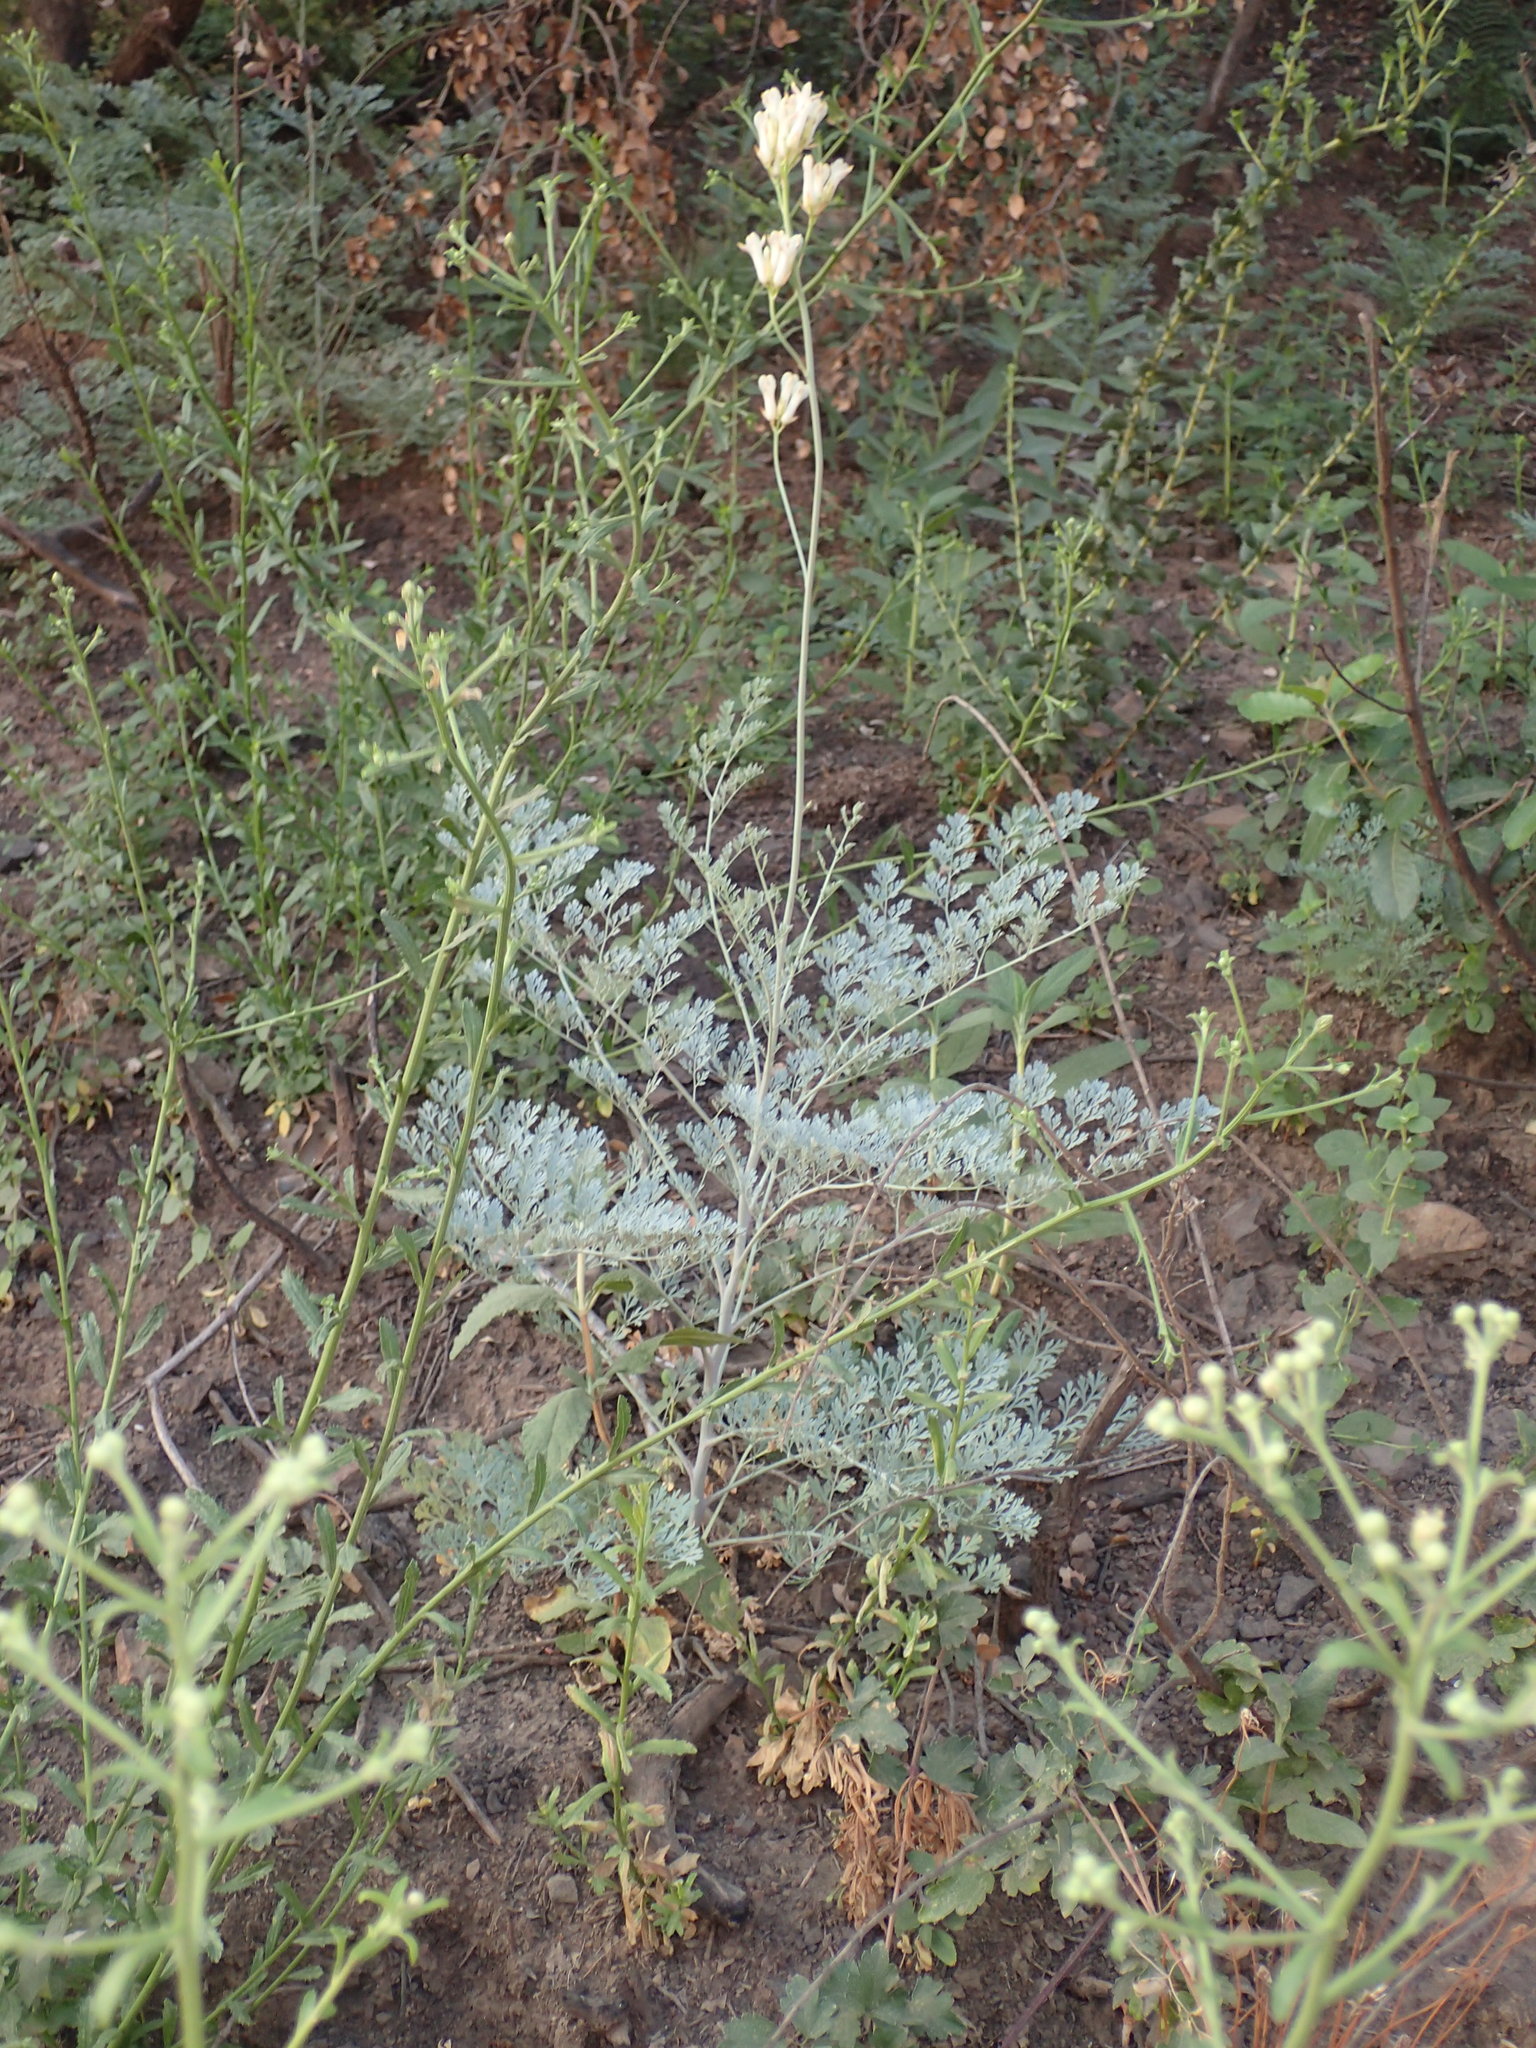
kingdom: Plantae
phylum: Tracheophyta
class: Magnoliopsida
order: Ranunculales
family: Papaveraceae
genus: Ehrendorferia
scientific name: Ehrendorferia ochroleuca
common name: White eardrops
